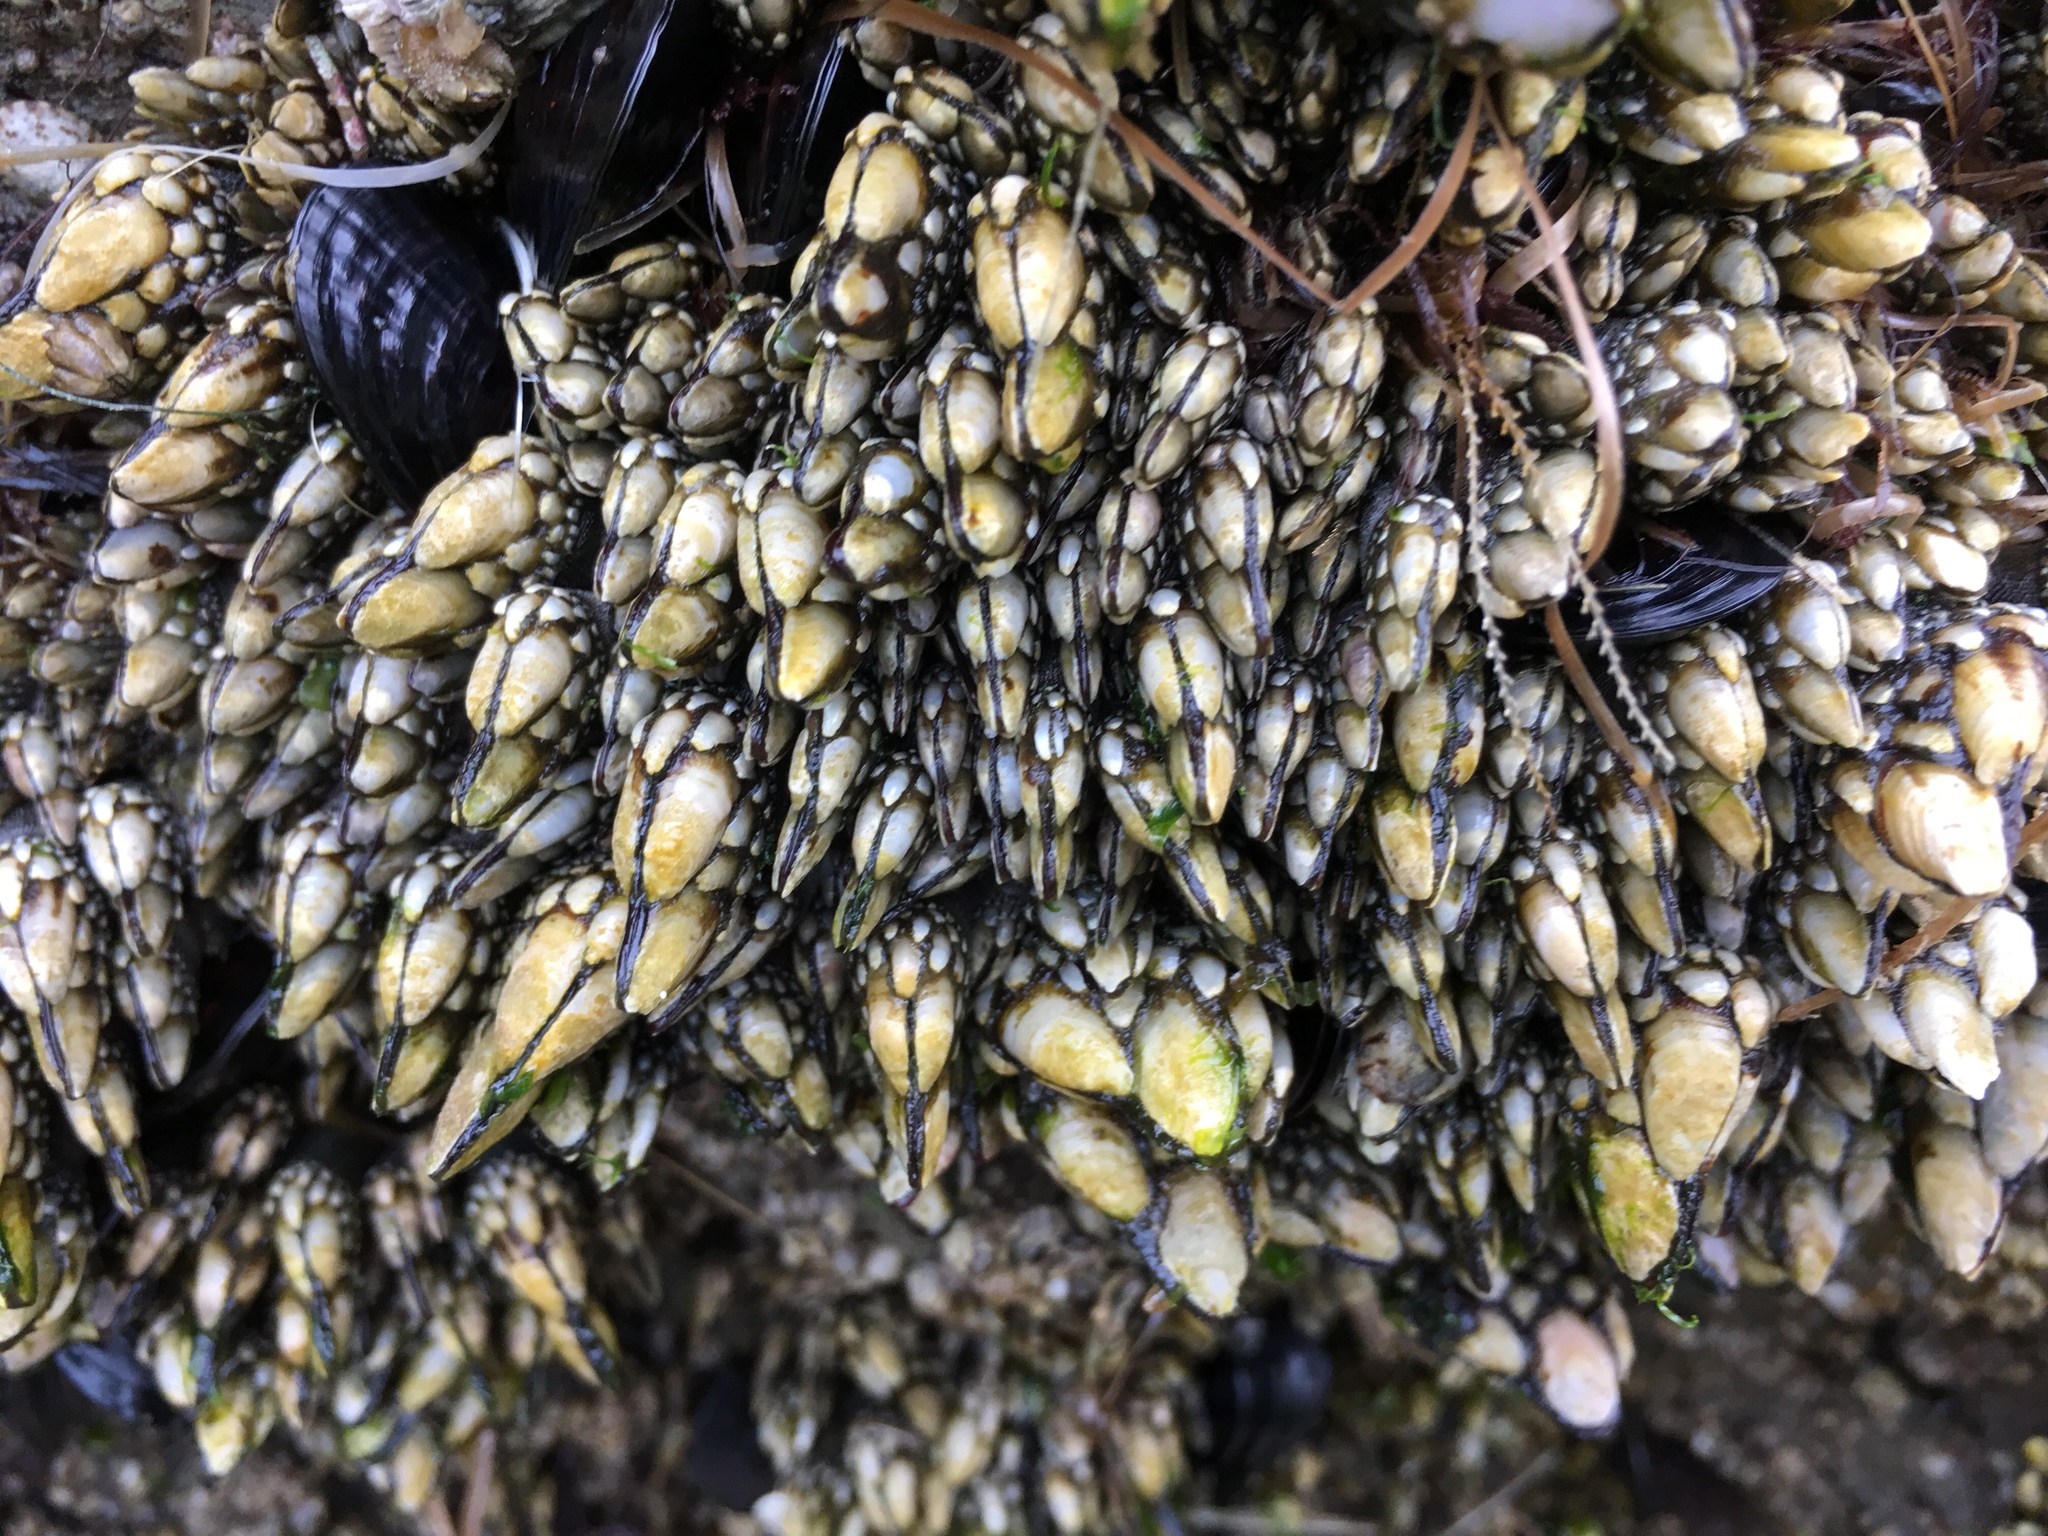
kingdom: Animalia
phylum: Arthropoda
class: Maxillopoda
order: Pedunculata
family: Pollicipedidae
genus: Pollicipes
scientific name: Pollicipes polymerus
